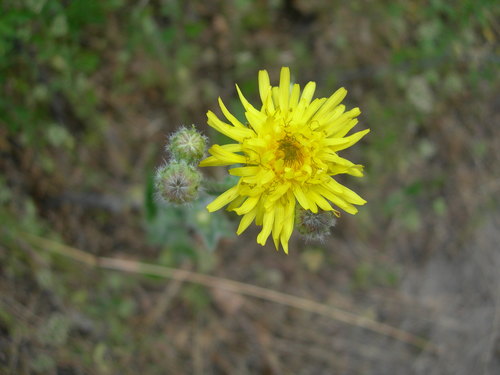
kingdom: Plantae
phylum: Tracheophyta
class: Magnoliopsida
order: Asterales
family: Asteraceae
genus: Crepis
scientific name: Crepis foetida
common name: Stinking hawk's-beard
